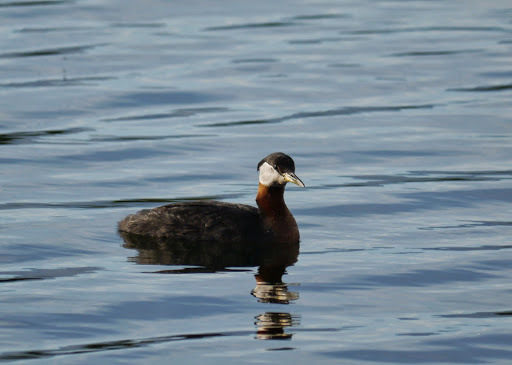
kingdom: Animalia
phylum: Chordata
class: Aves
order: Podicipediformes
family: Podicipedidae
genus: Podiceps
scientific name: Podiceps grisegena
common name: Red-necked grebe
